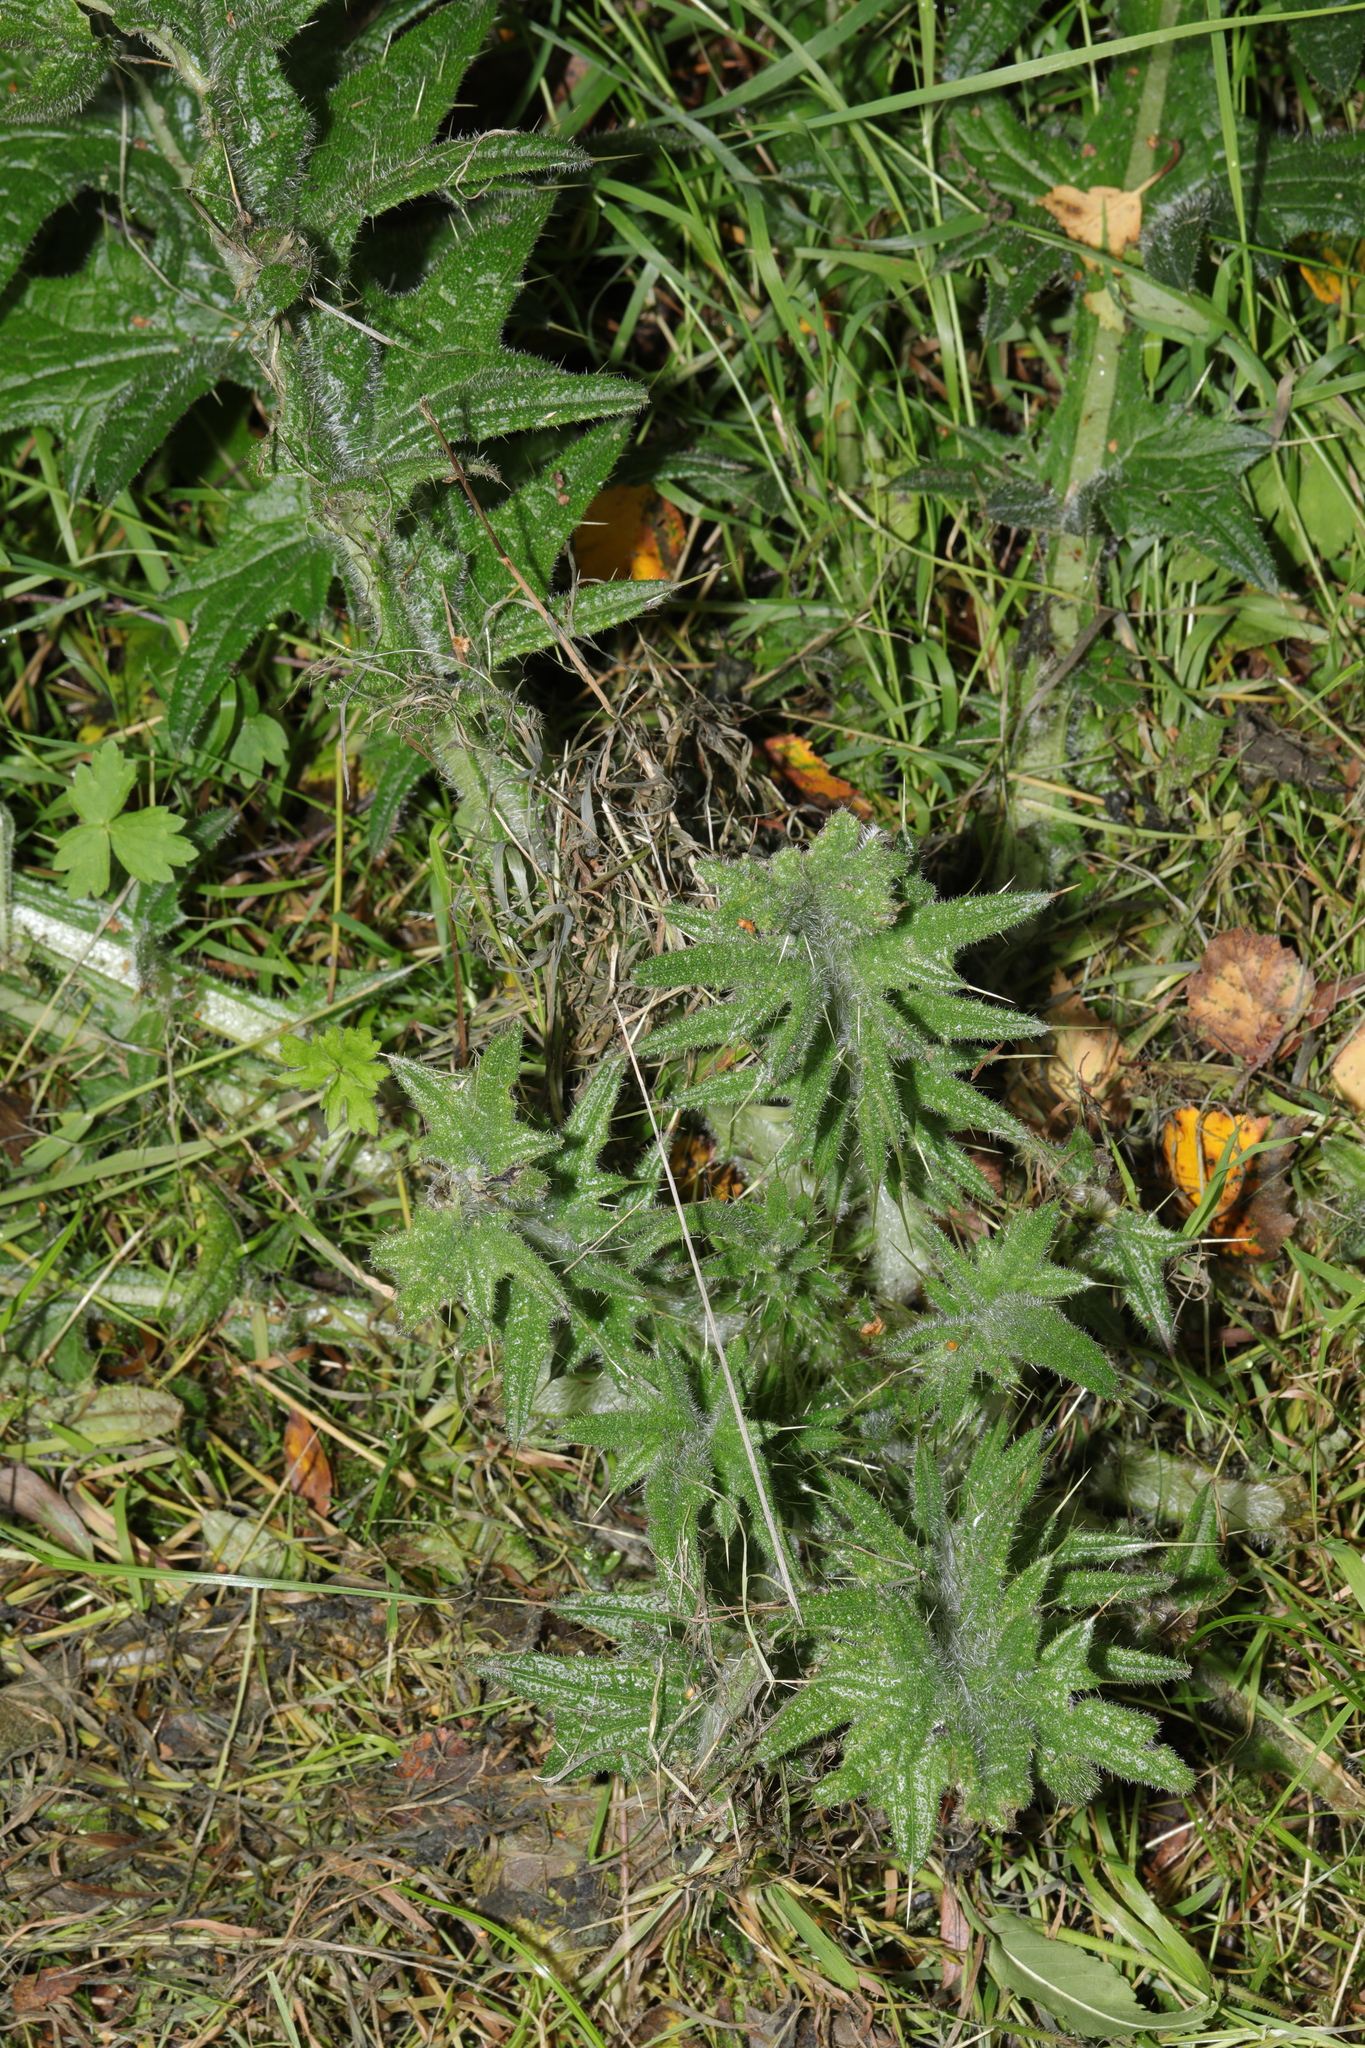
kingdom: Plantae
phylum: Tracheophyta
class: Magnoliopsida
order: Asterales
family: Asteraceae
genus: Cirsium
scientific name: Cirsium vulgare
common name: Bull thistle
